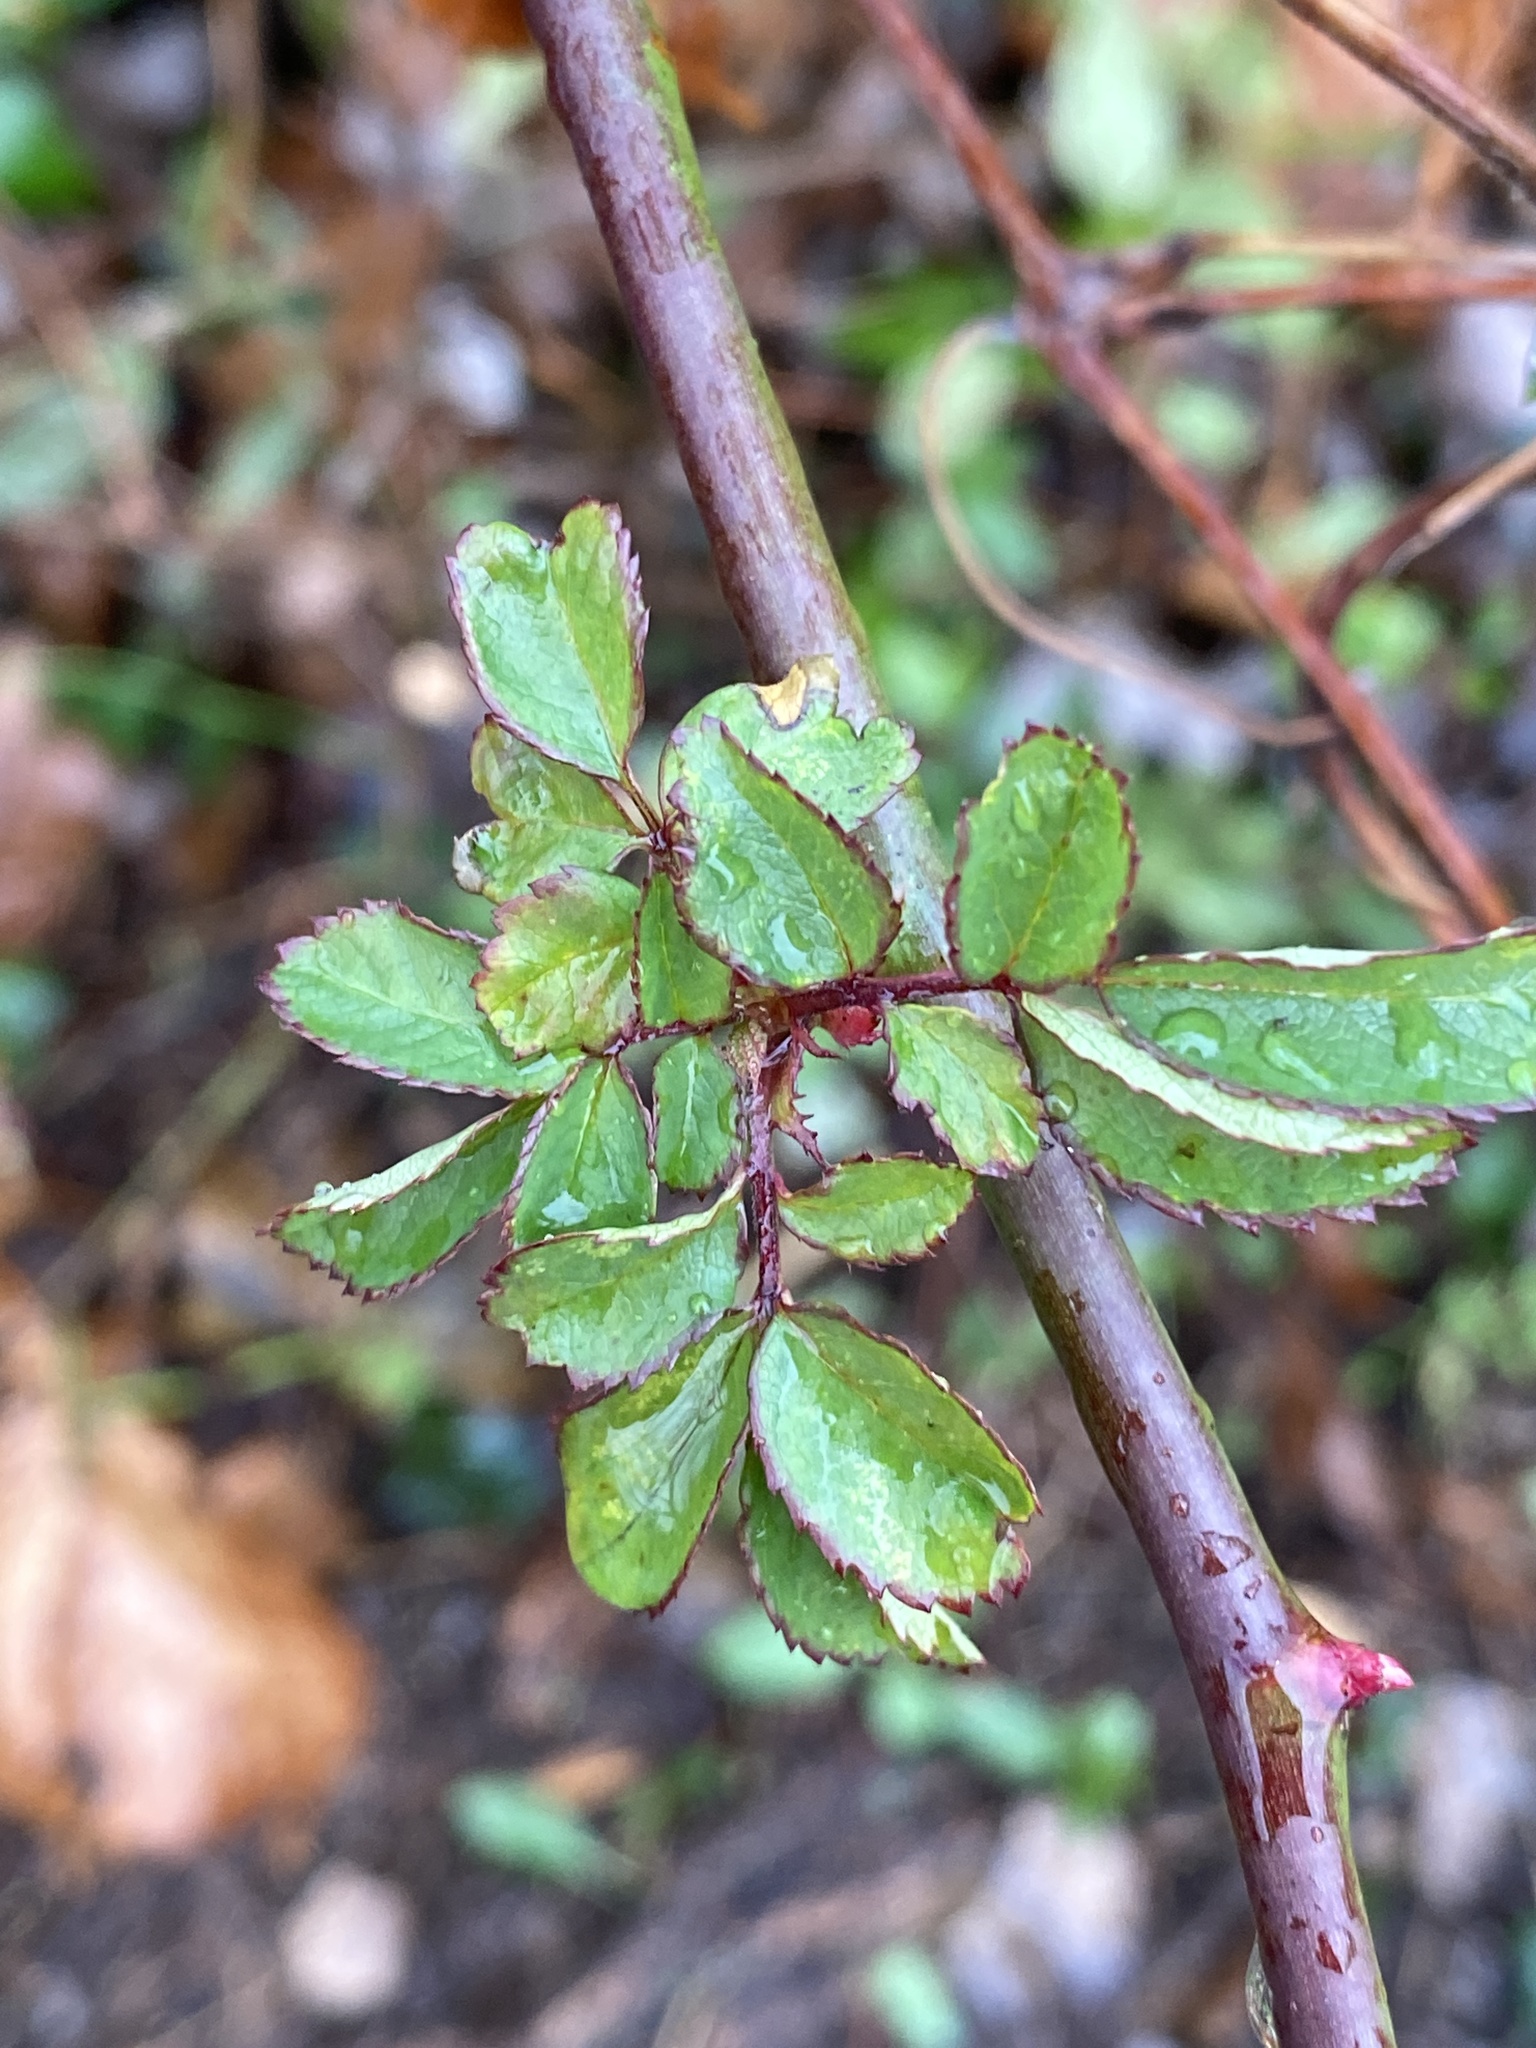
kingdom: Plantae
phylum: Tracheophyta
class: Magnoliopsida
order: Rosales
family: Rosaceae
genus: Rosa
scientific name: Rosa multiflora
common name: Multiflora rose
